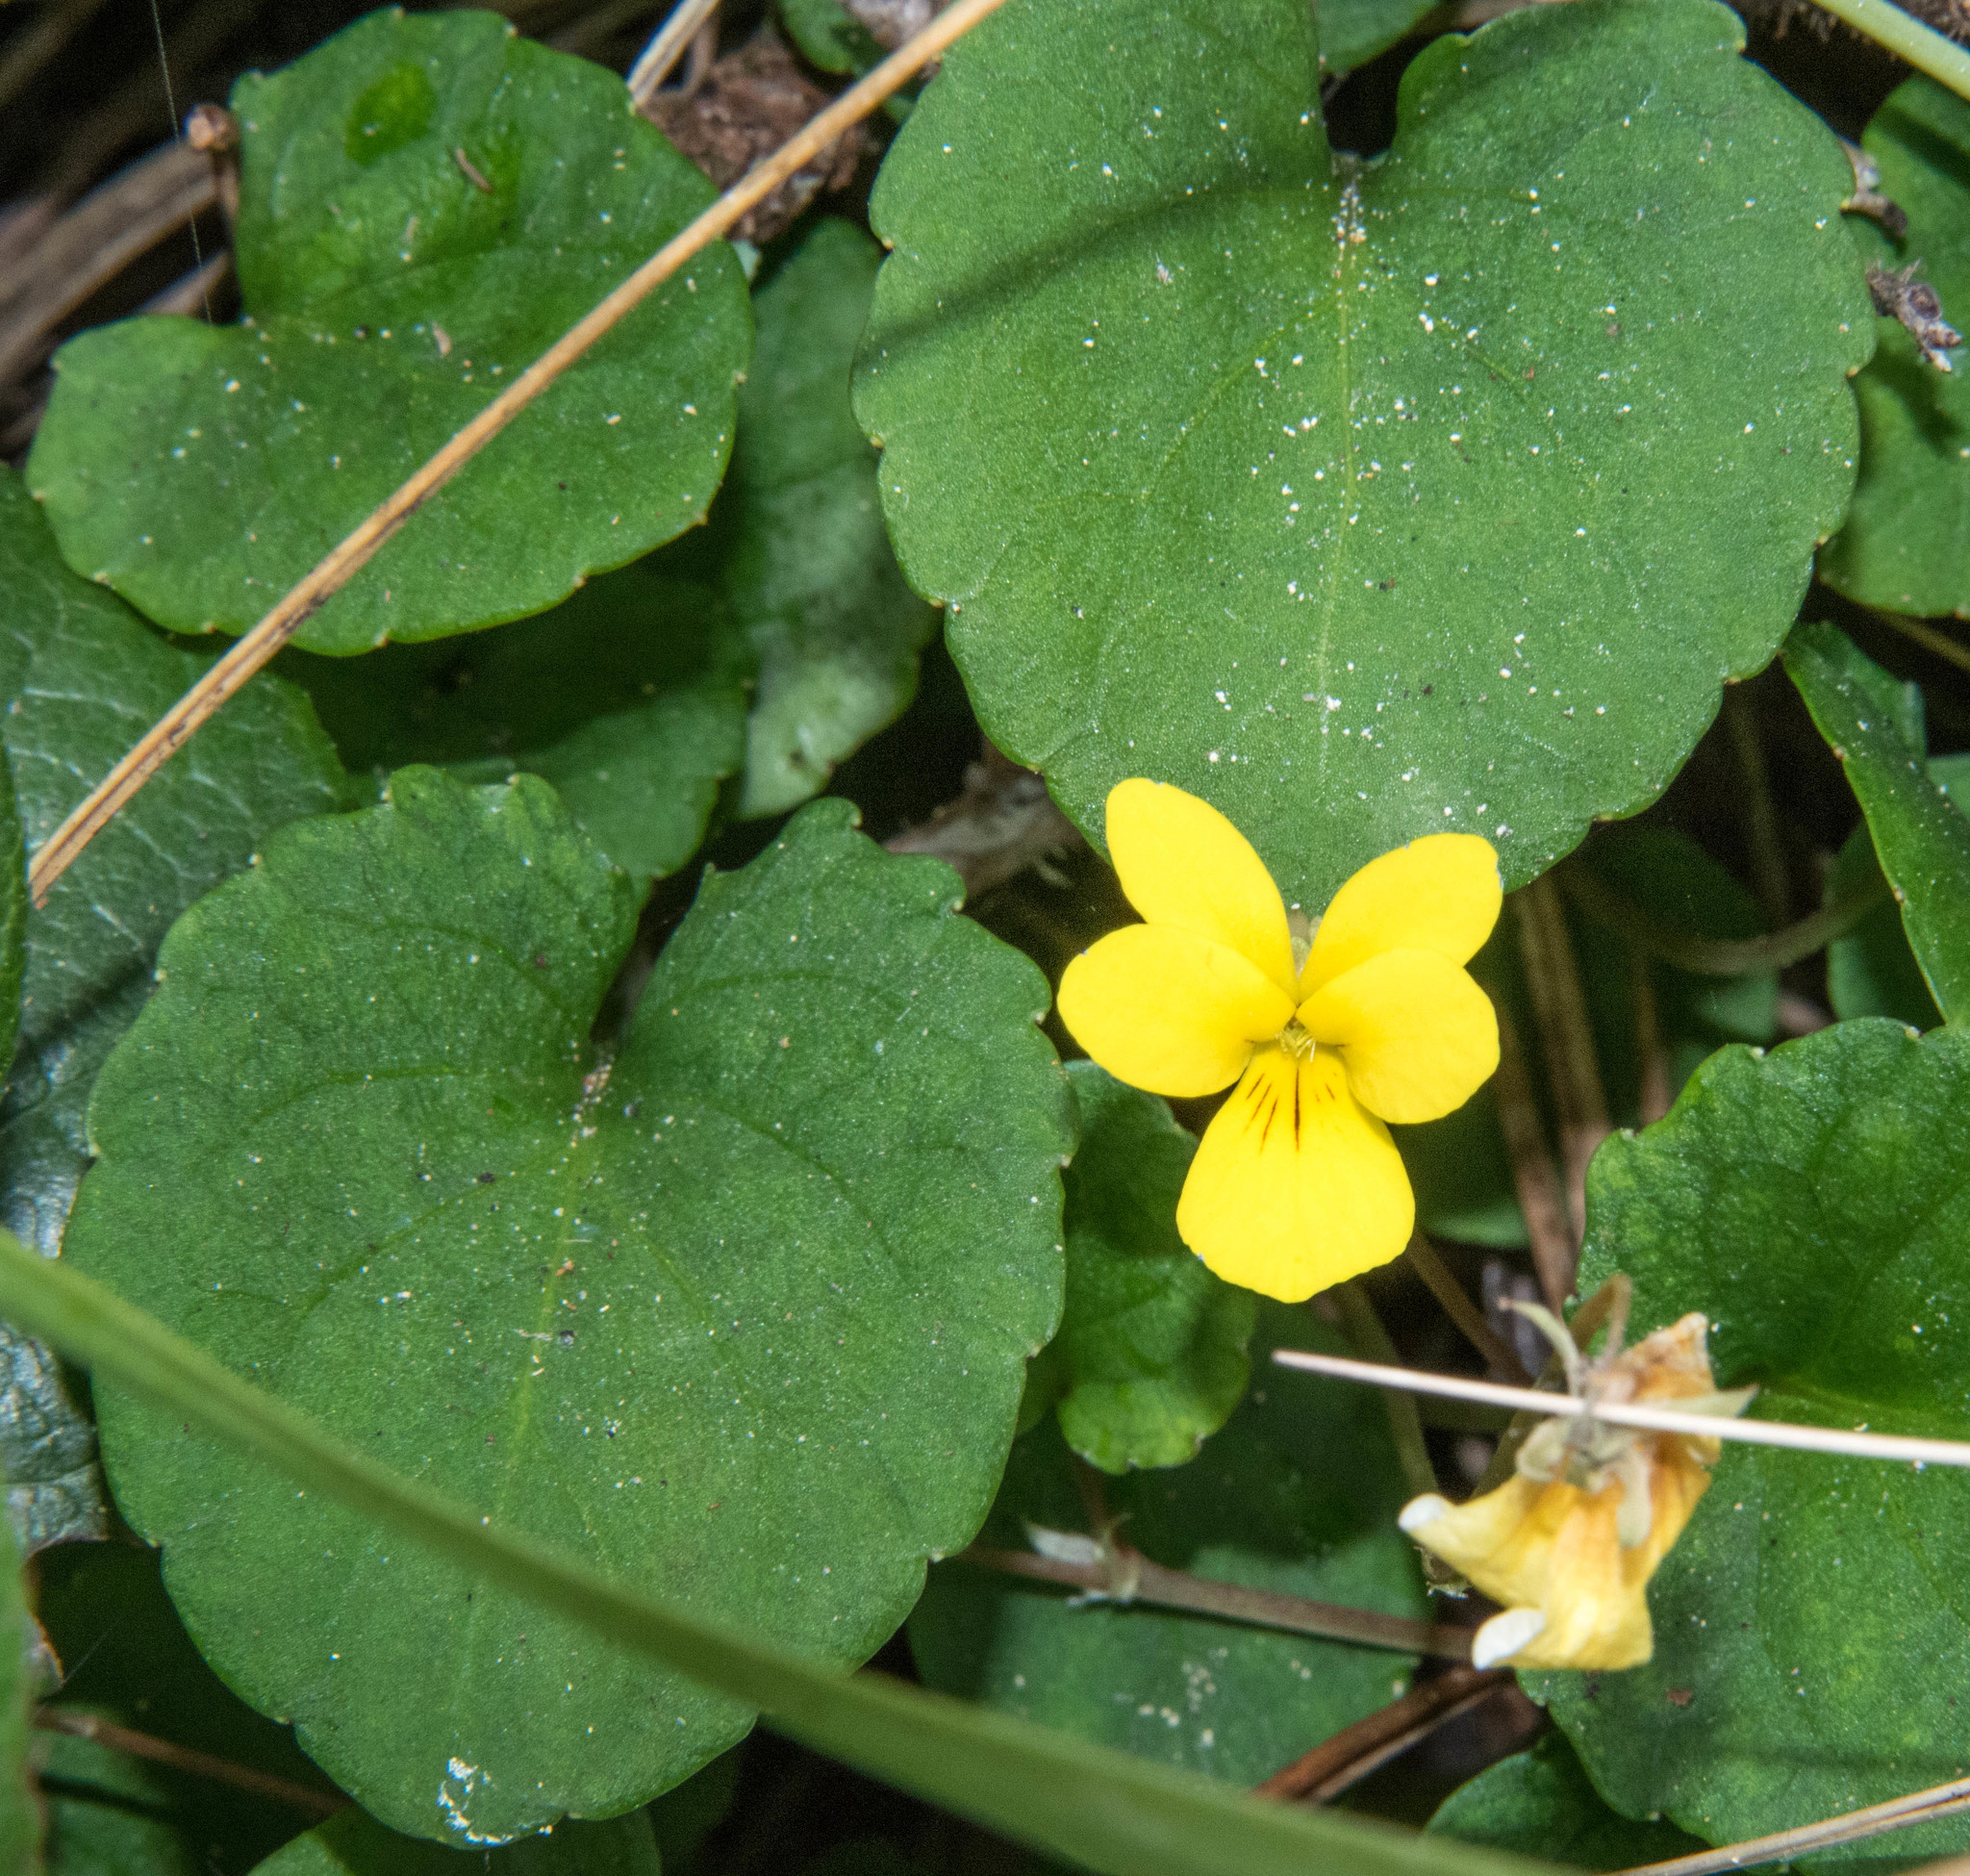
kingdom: Plantae
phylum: Tracheophyta
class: Magnoliopsida
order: Malpighiales
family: Violaceae
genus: Viola
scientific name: Viola sempervirens
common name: Evergreen violet
